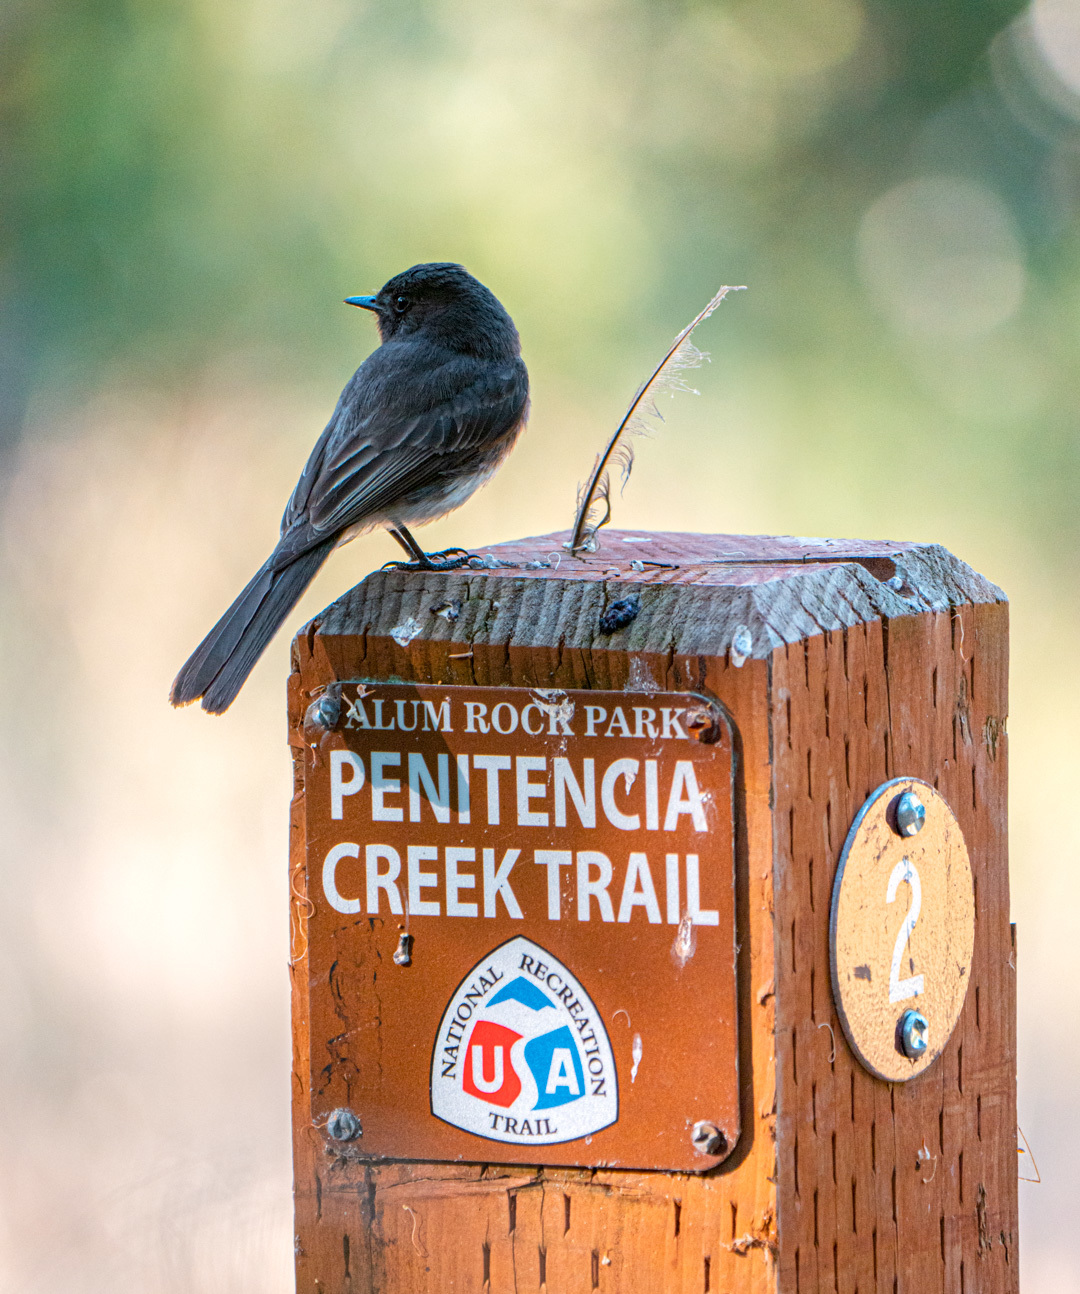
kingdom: Animalia
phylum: Chordata
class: Aves
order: Passeriformes
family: Tyrannidae
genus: Sayornis
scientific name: Sayornis nigricans
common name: Black phoebe
